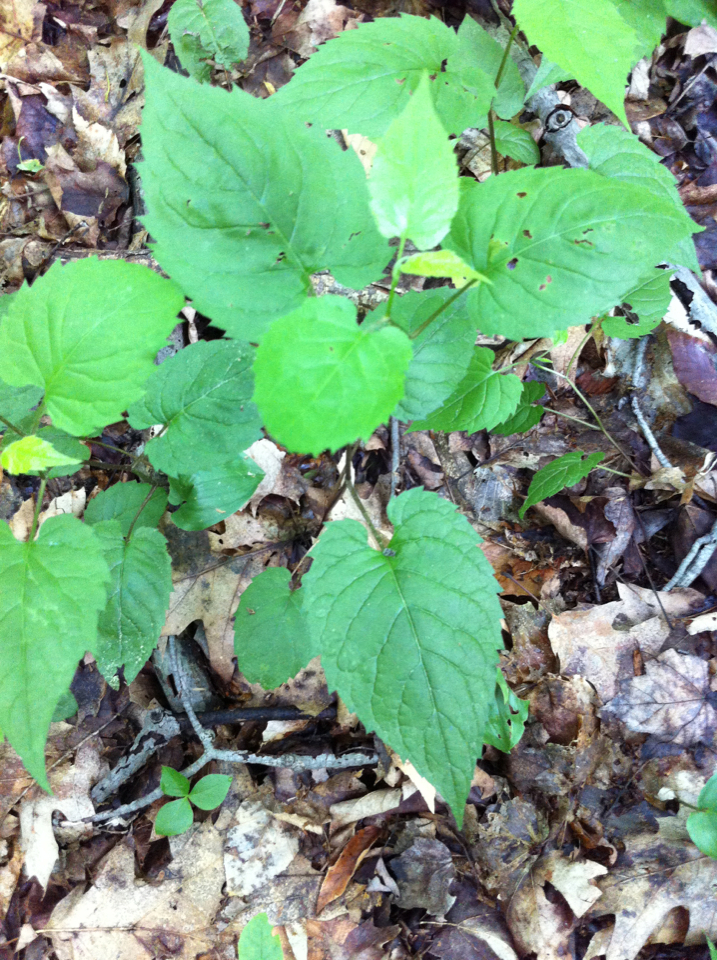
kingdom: Plantae
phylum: Tracheophyta
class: Magnoliopsida
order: Asterales
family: Asteraceae
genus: Eurybia
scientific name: Eurybia divaricata
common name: White wood aster
